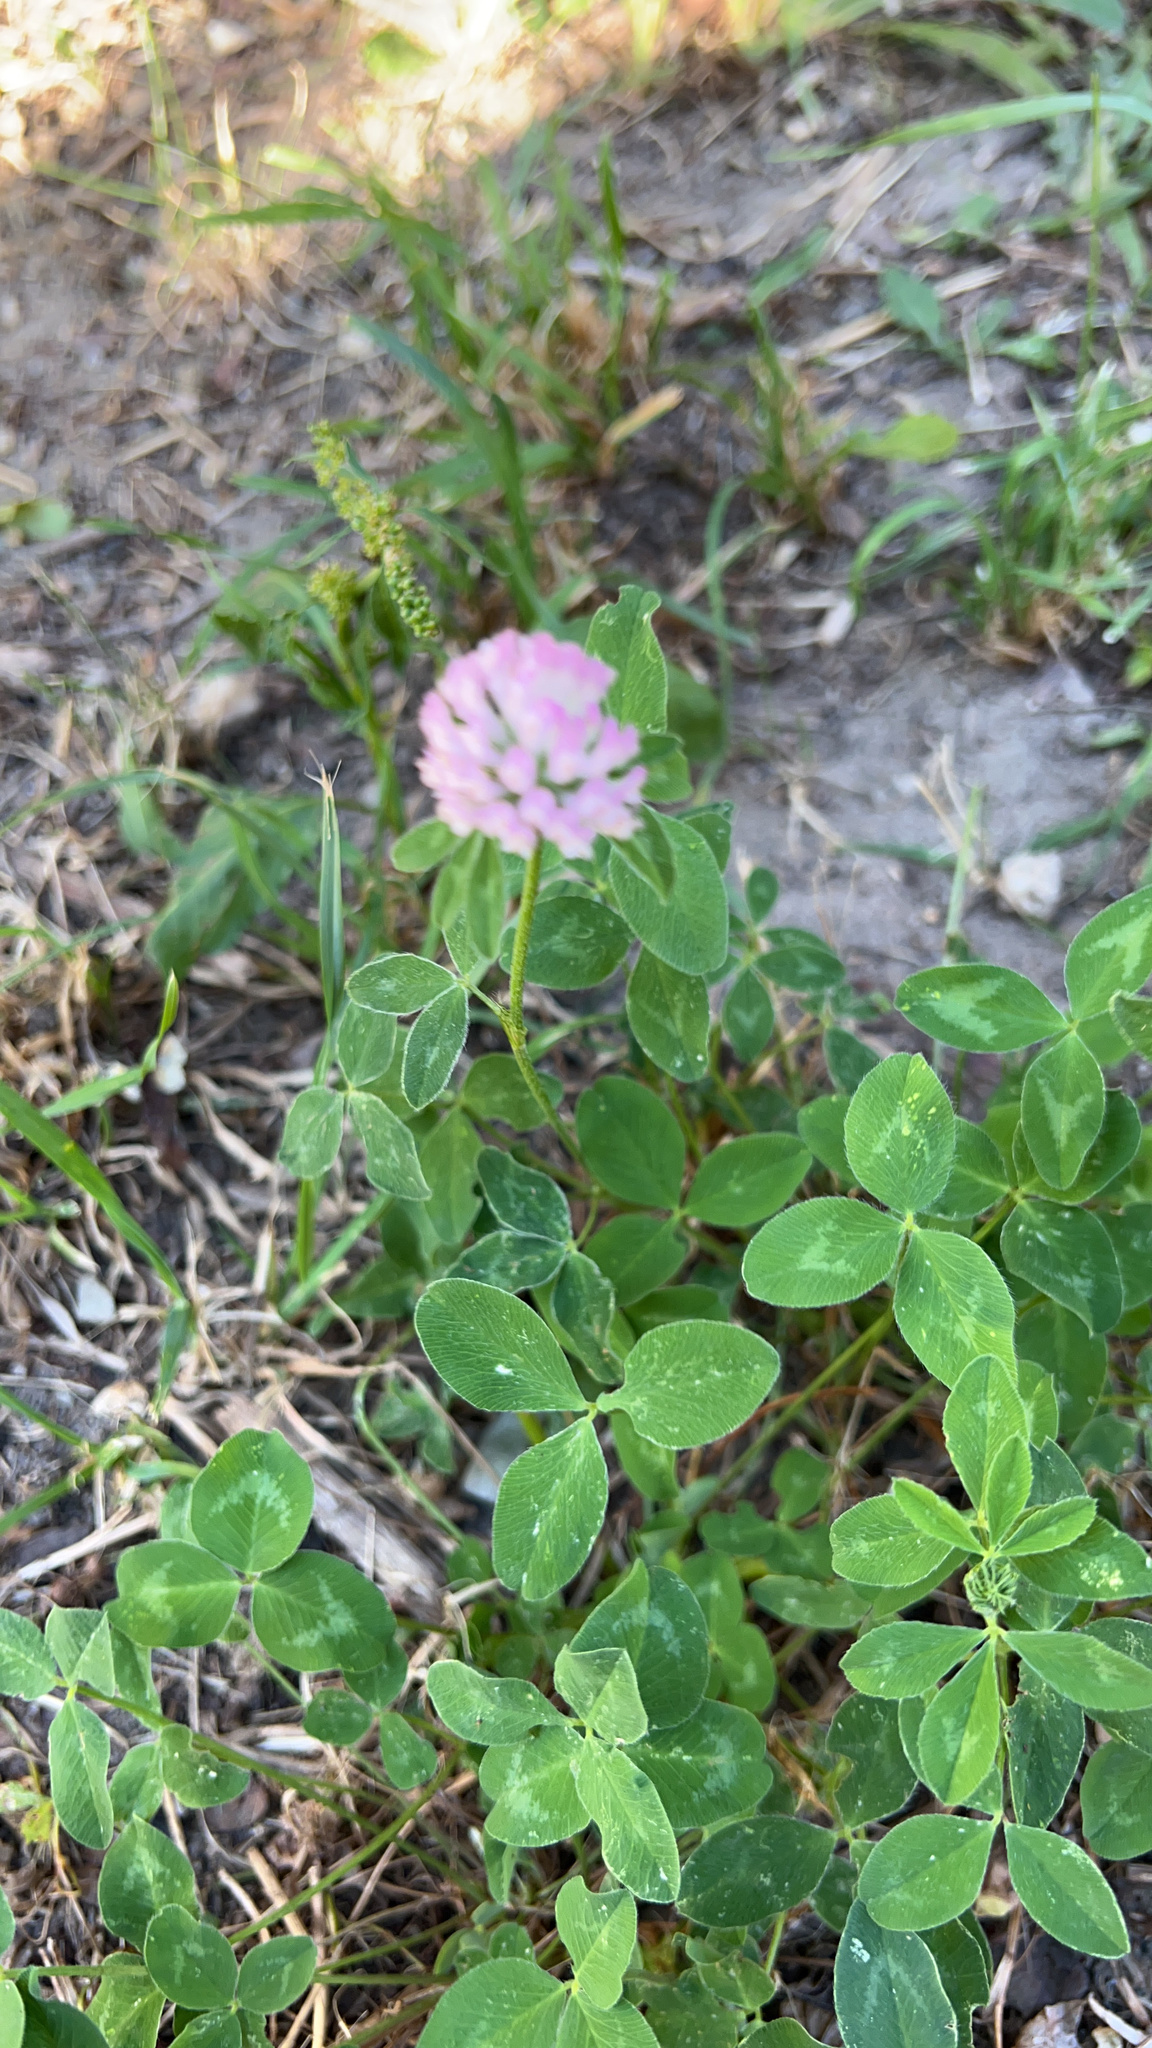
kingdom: Plantae
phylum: Tracheophyta
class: Magnoliopsida
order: Fabales
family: Fabaceae
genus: Trifolium
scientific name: Trifolium pratense
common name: Red clover
